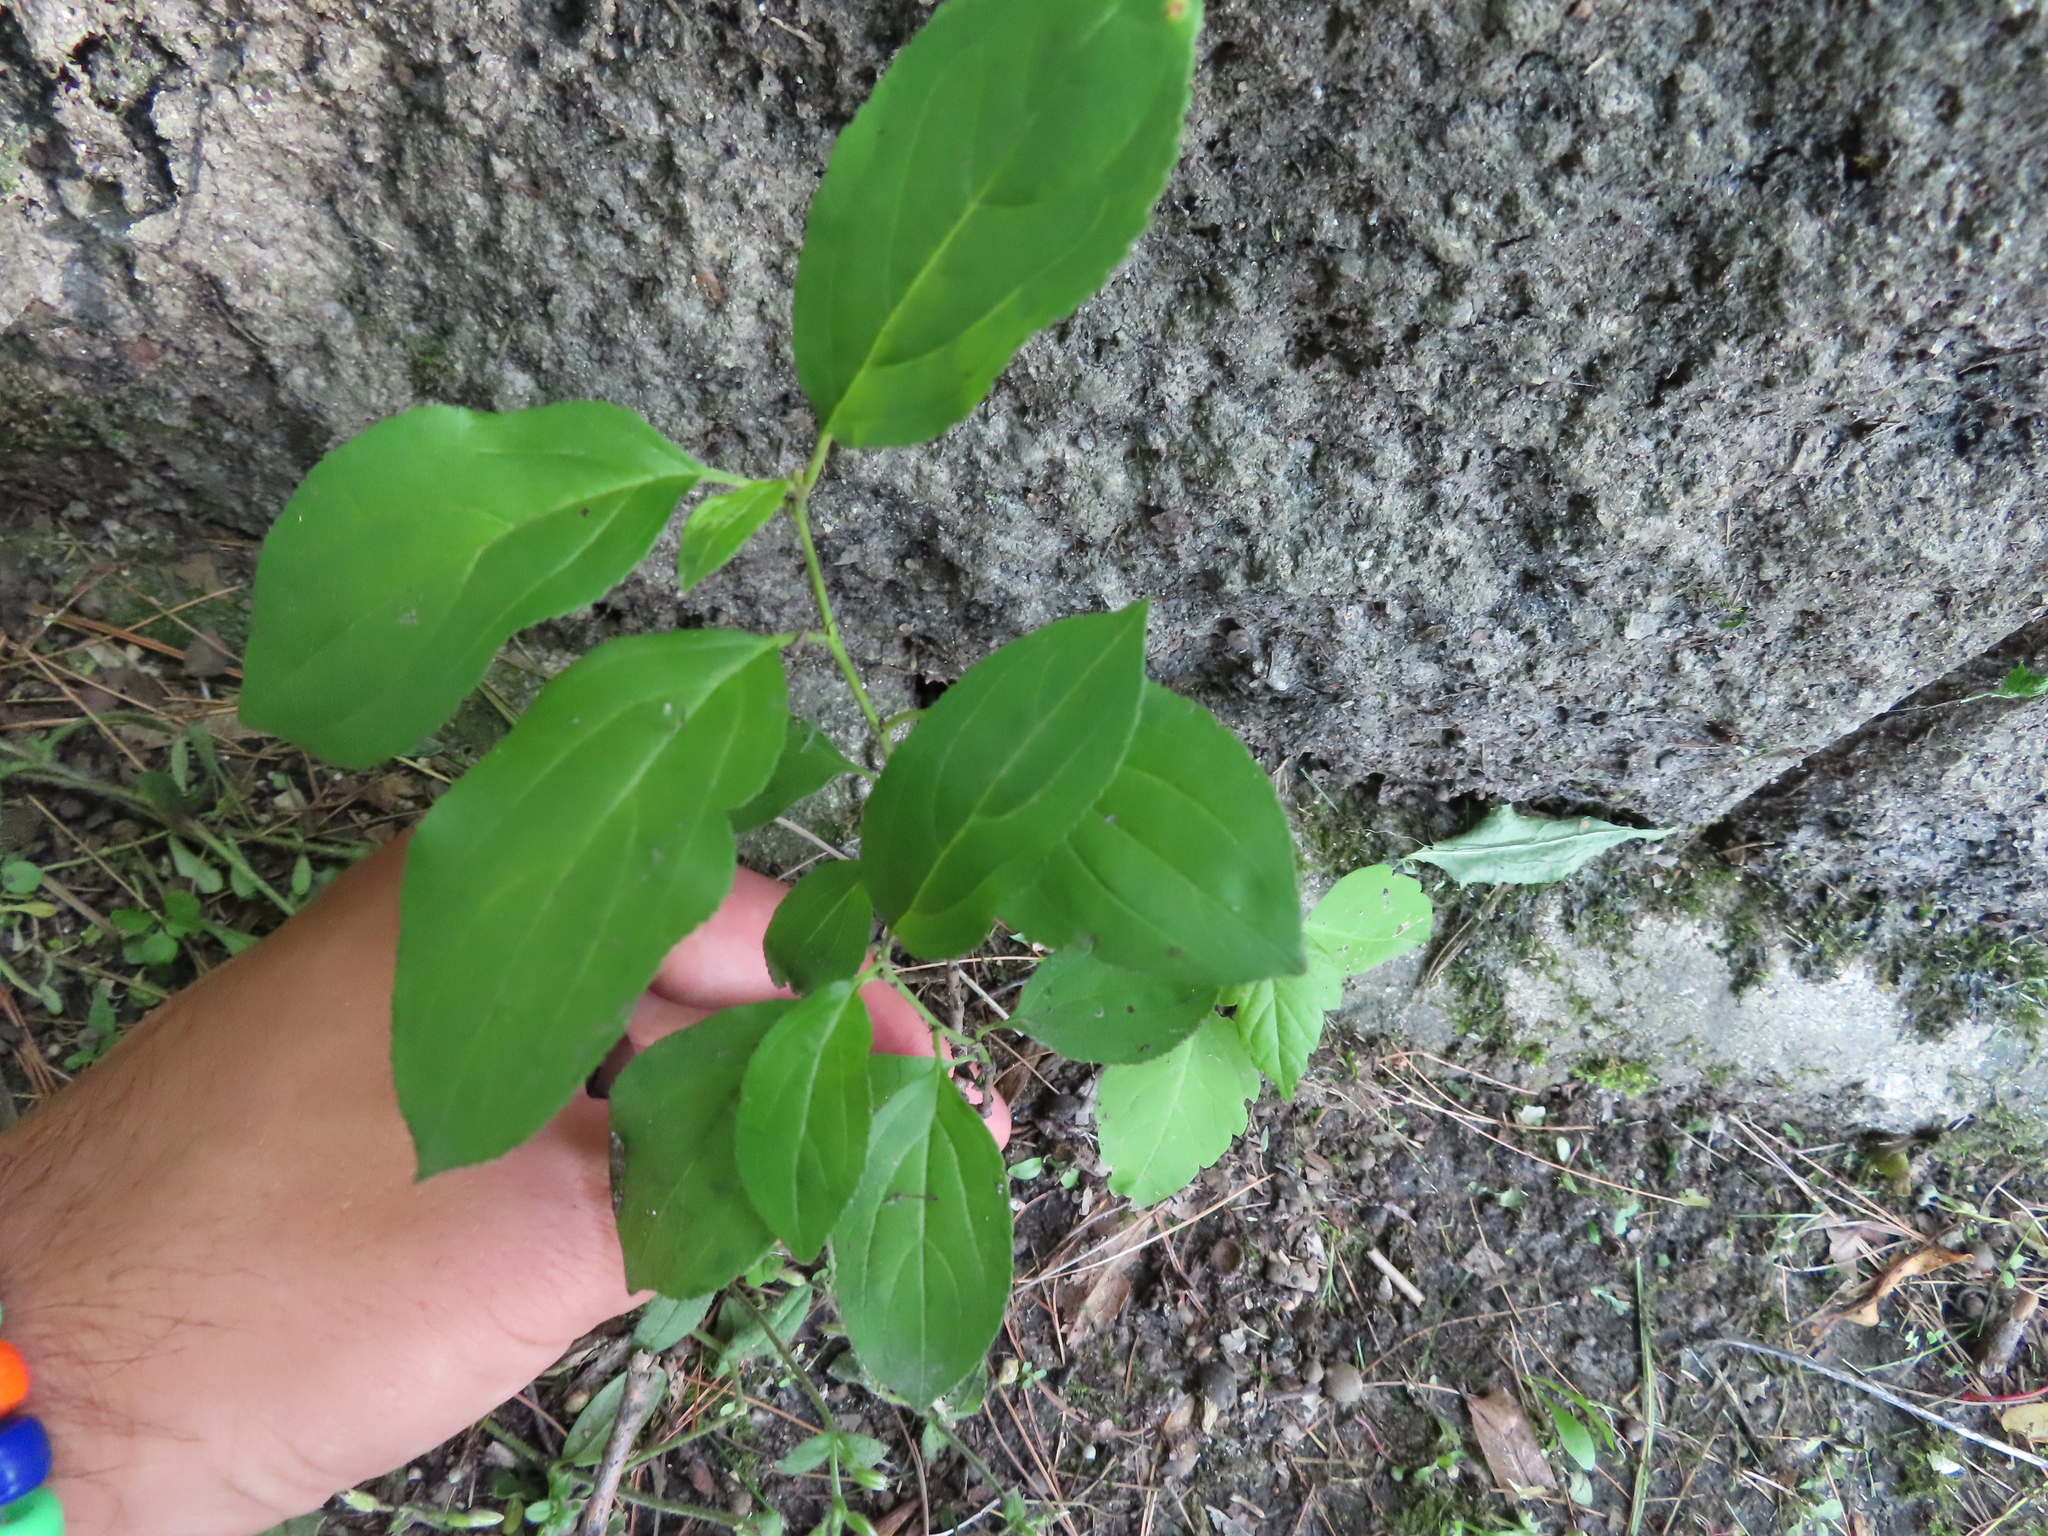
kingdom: Plantae
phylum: Tracheophyta
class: Magnoliopsida
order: Rosales
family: Rhamnaceae
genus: Rhamnus
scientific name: Rhamnus cathartica
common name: Common buckthorn
